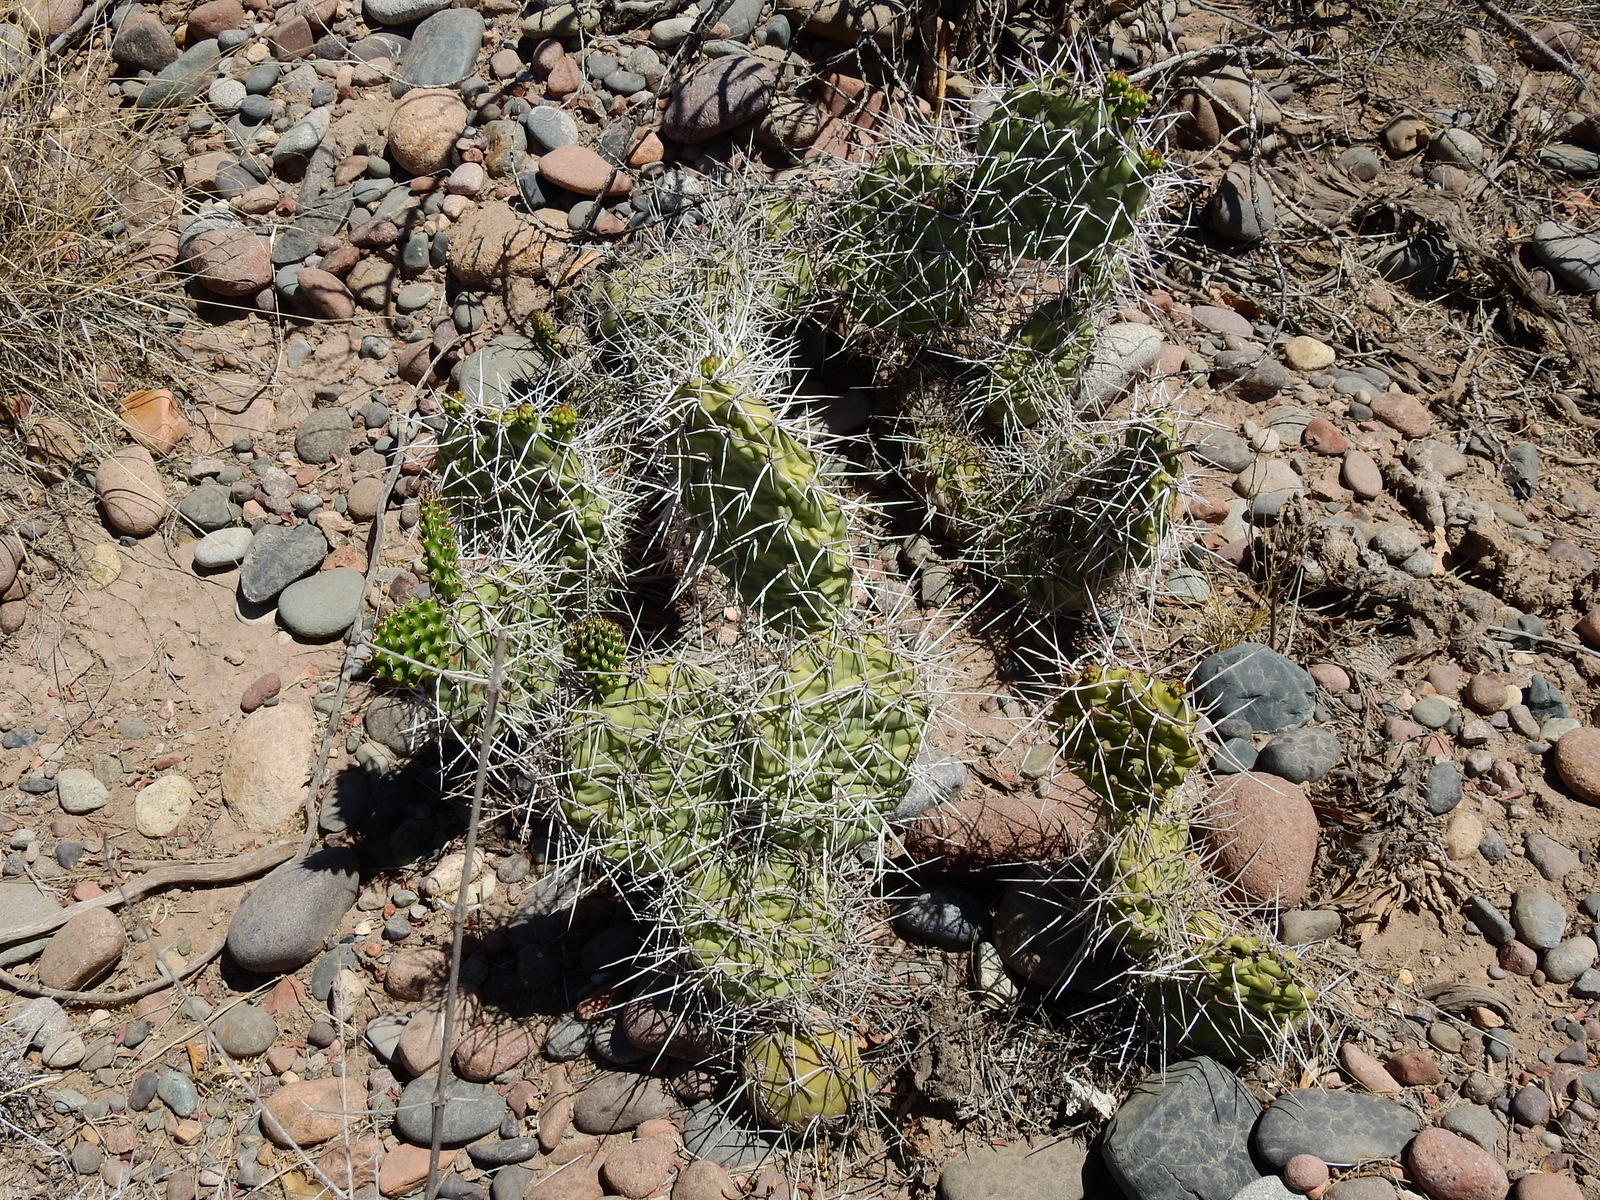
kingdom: Plantae
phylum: Tracheophyta
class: Magnoliopsida
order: Caryophyllales
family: Cactaceae
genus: Opuntia
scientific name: Opuntia sulphurea
